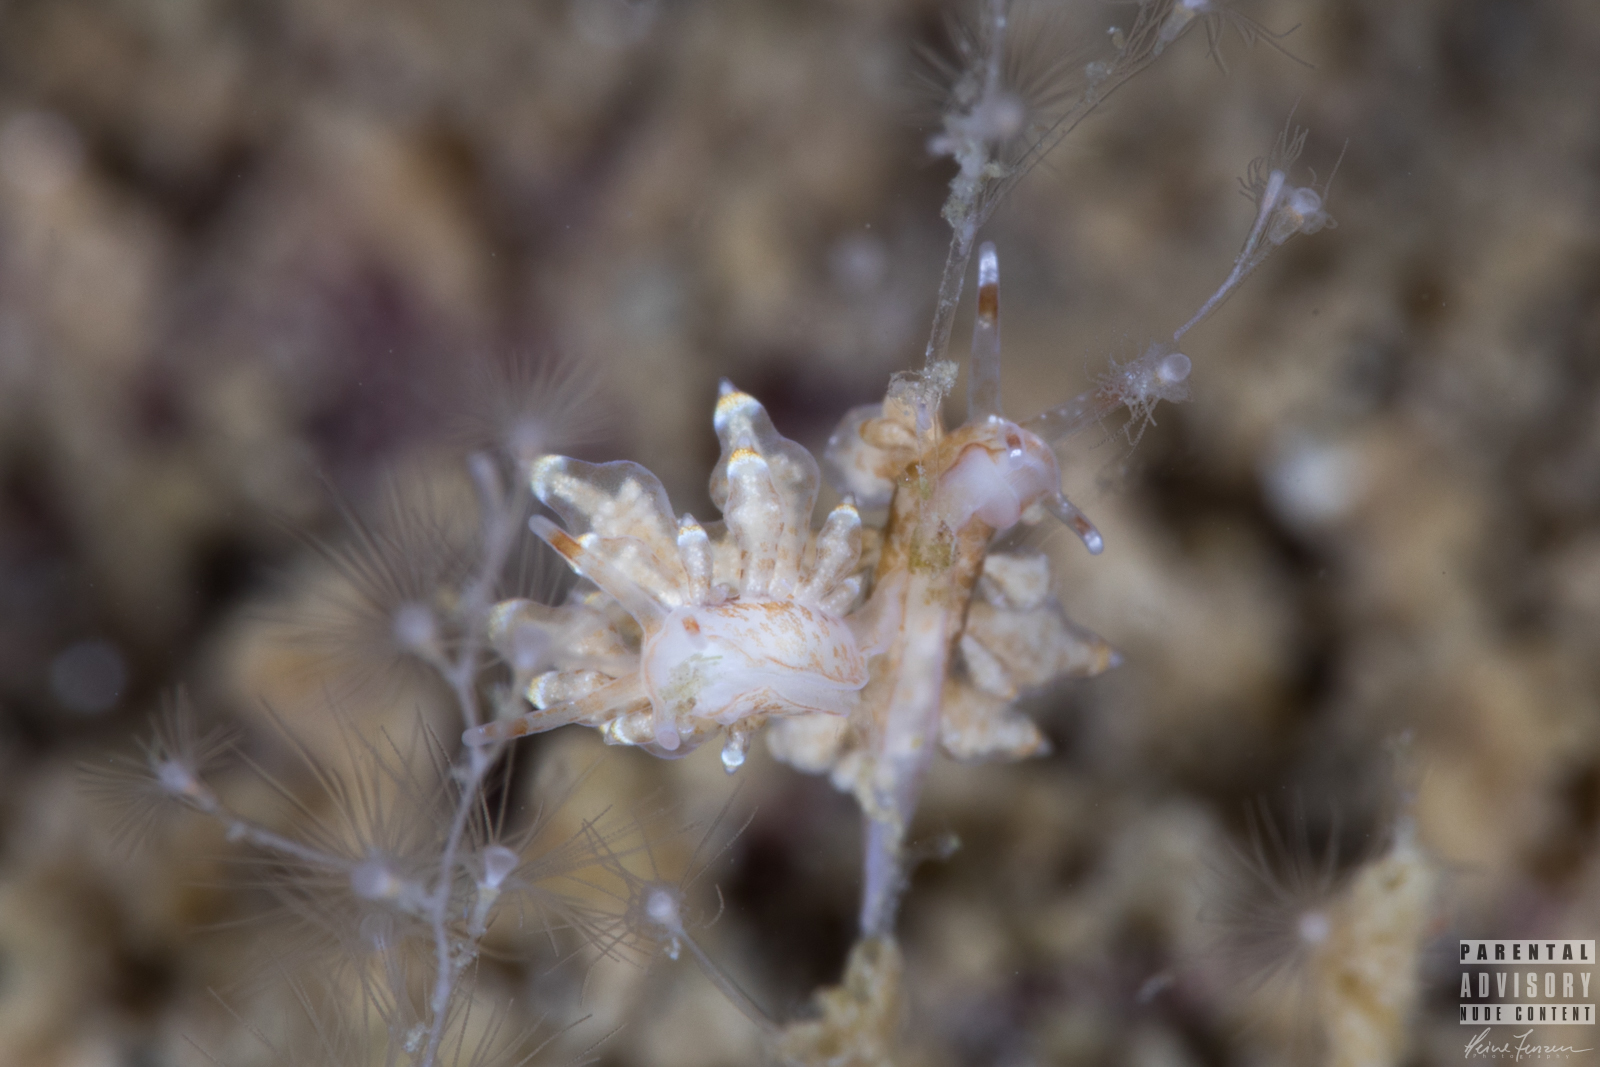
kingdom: Animalia
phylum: Mollusca
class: Gastropoda
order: Nudibranchia
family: Eubranchidae
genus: Eubranchus
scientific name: Eubranchus exiguus
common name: Balloon aeolis
